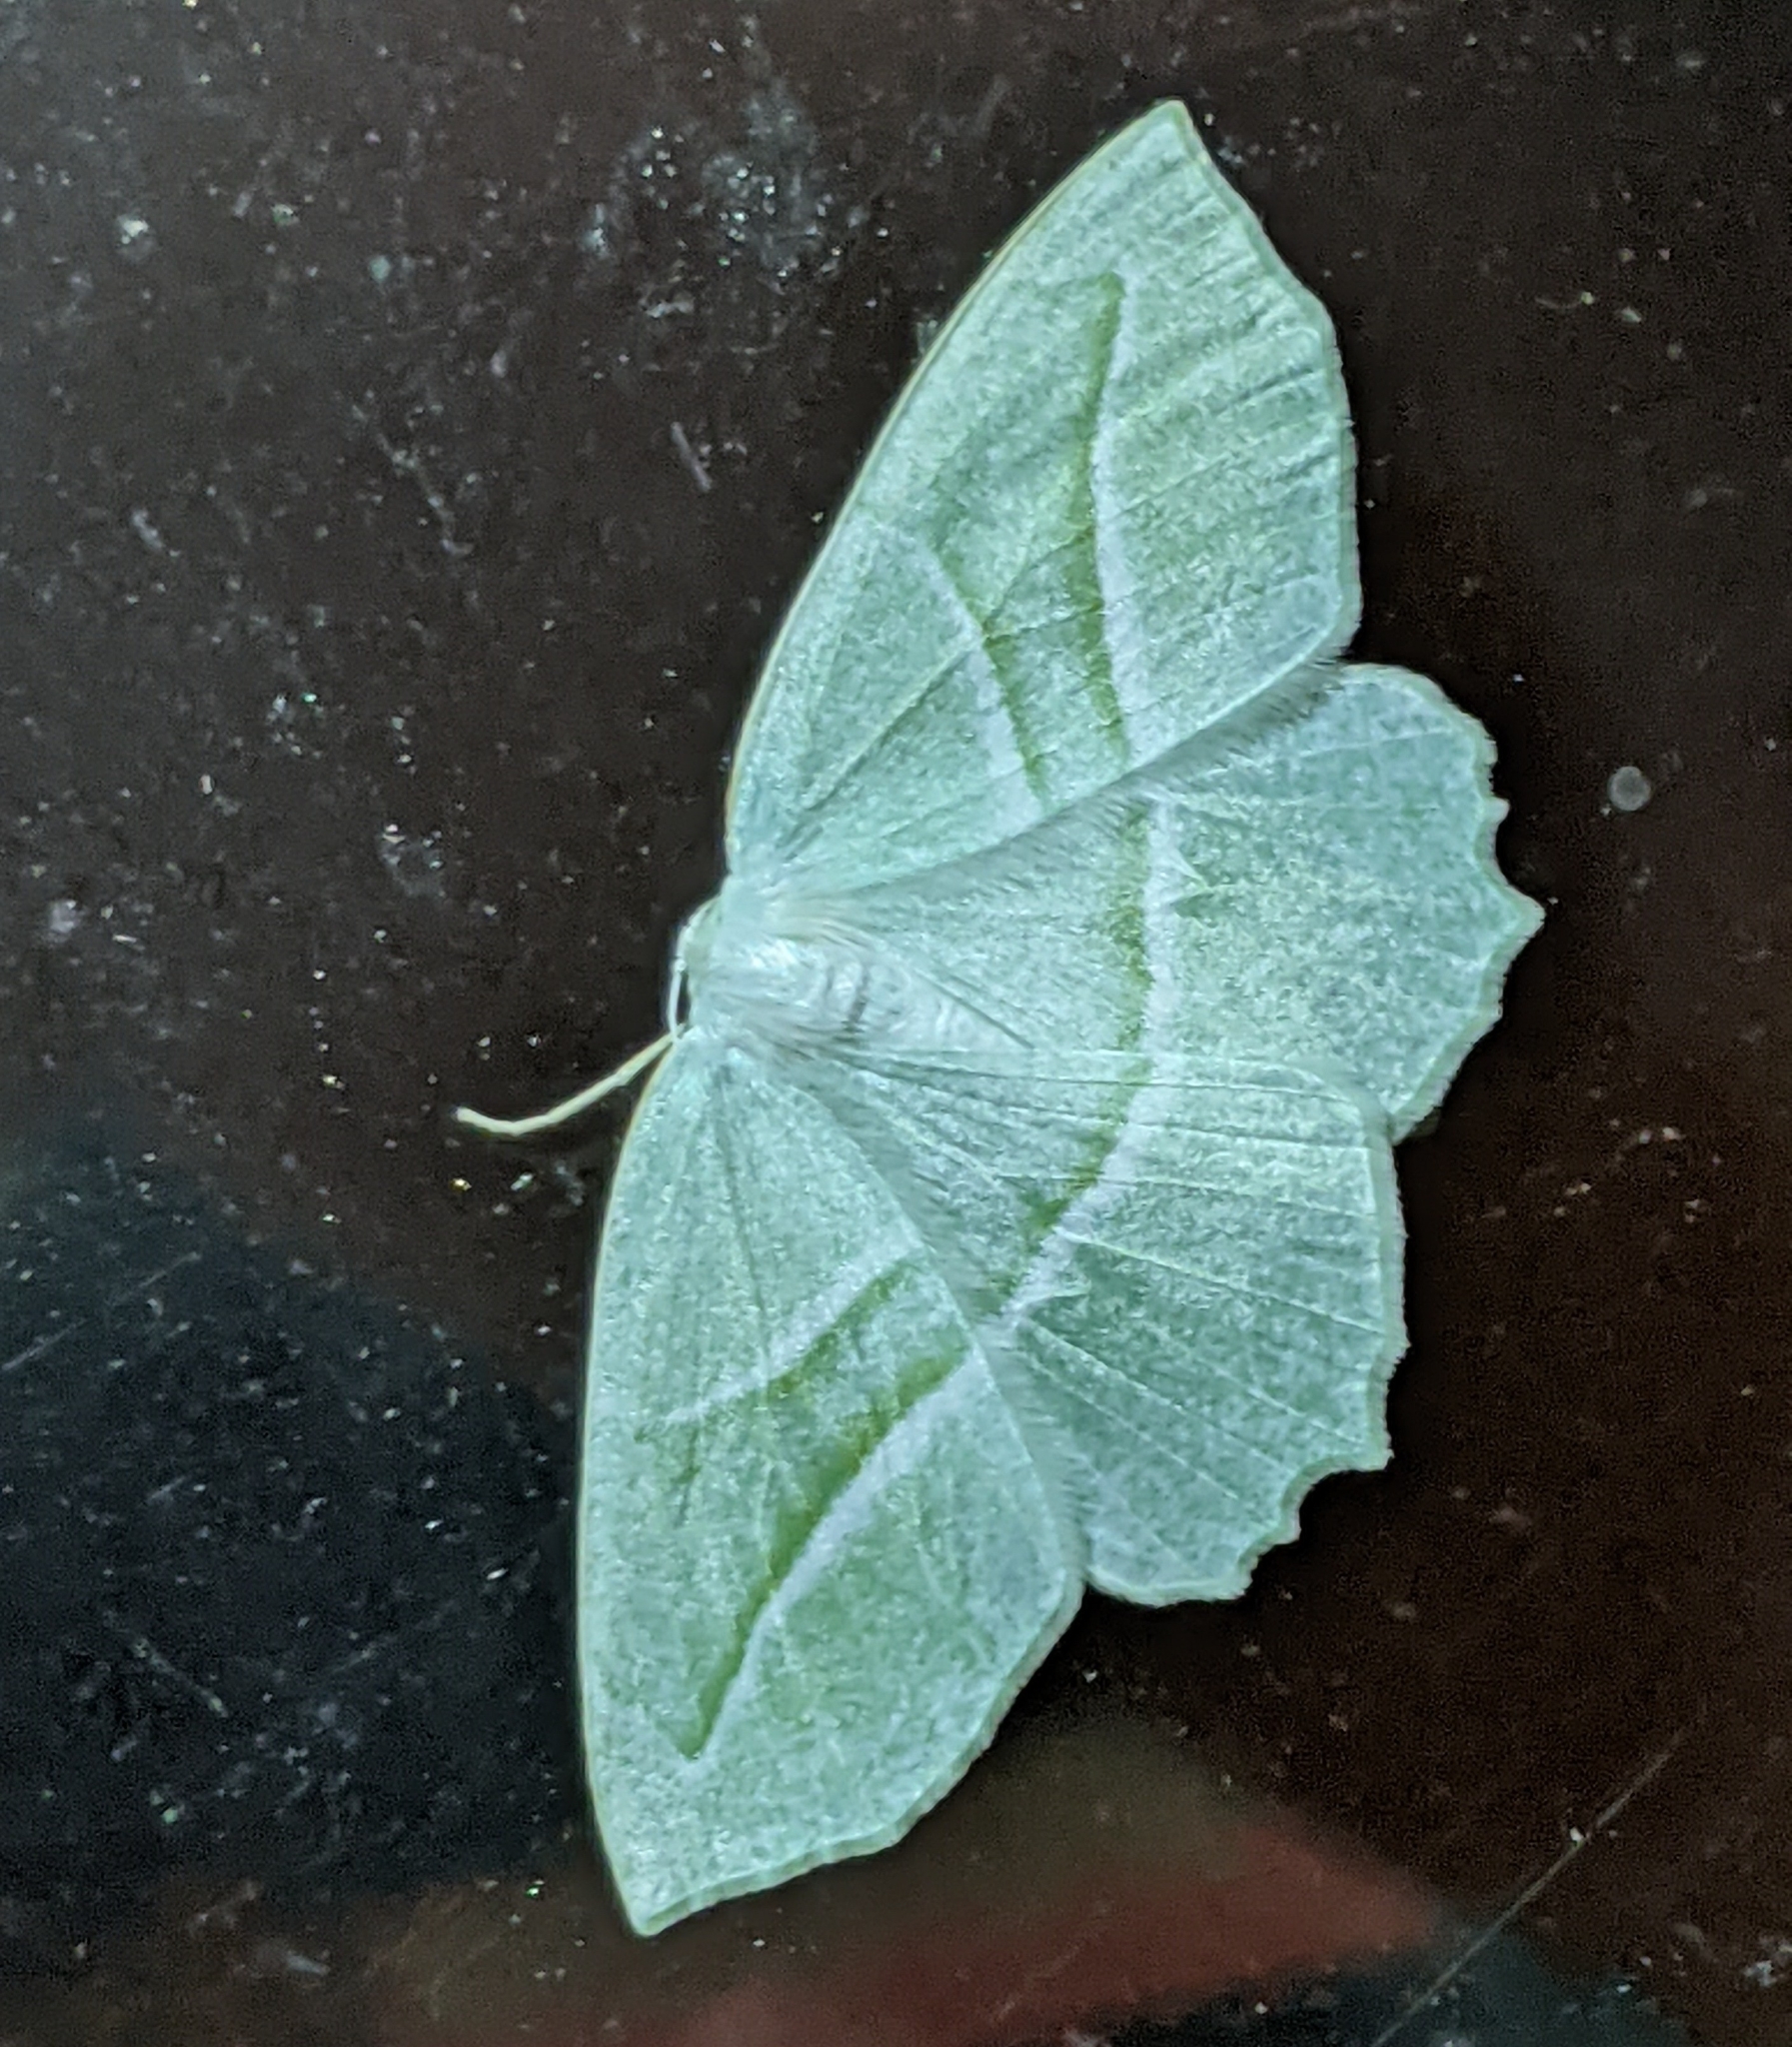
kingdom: Animalia
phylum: Arthropoda
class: Insecta
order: Lepidoptera
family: Geometridae
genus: Campaea
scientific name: Campaea perlata
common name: Fringed looper
